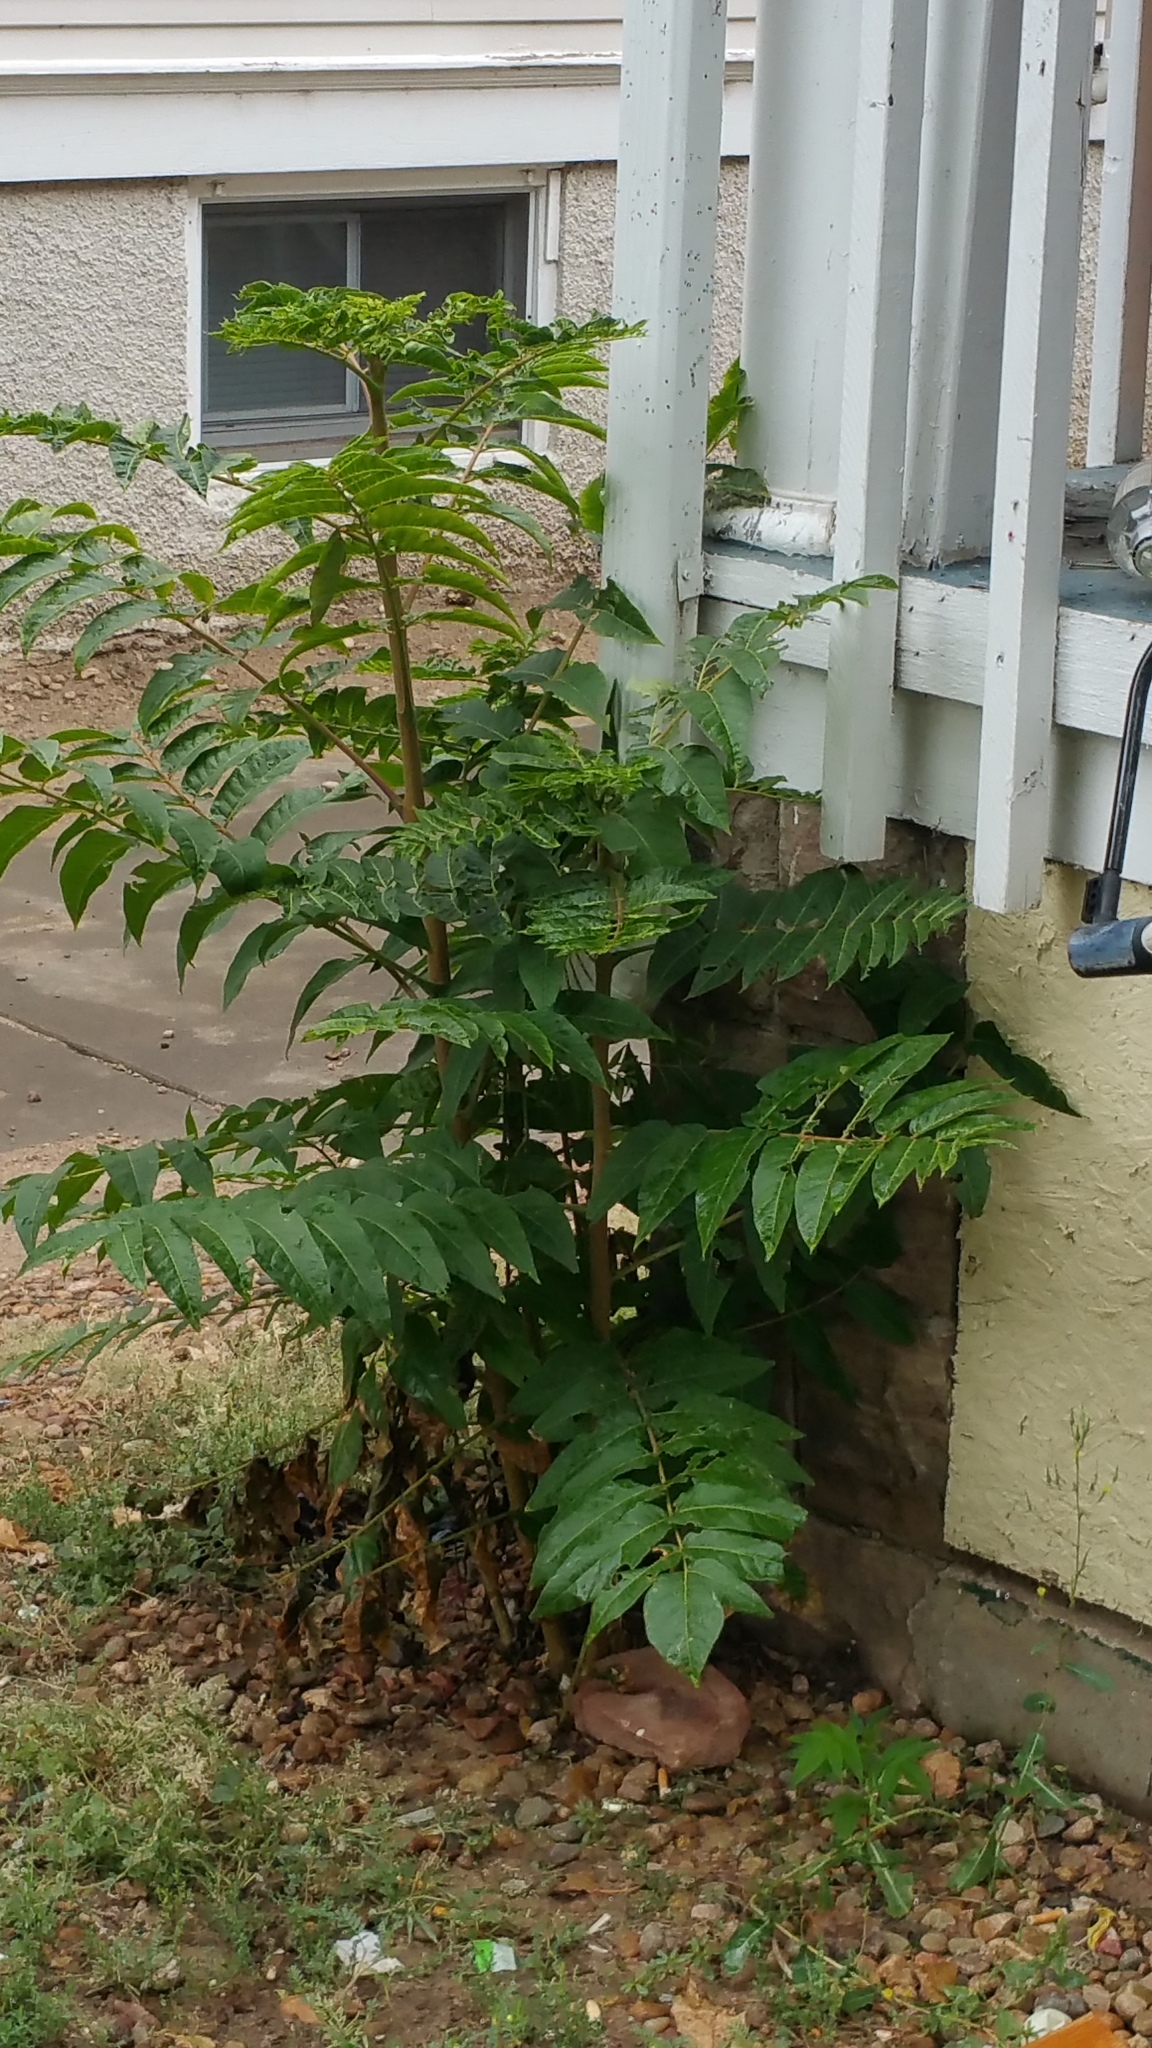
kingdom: Plantae
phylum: Tracheophyta
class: Magnoliopsida
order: Sapindales
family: Simaroubaceae
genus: Ailanthus
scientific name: Ailanthus altissima
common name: Tree-of-heaven
